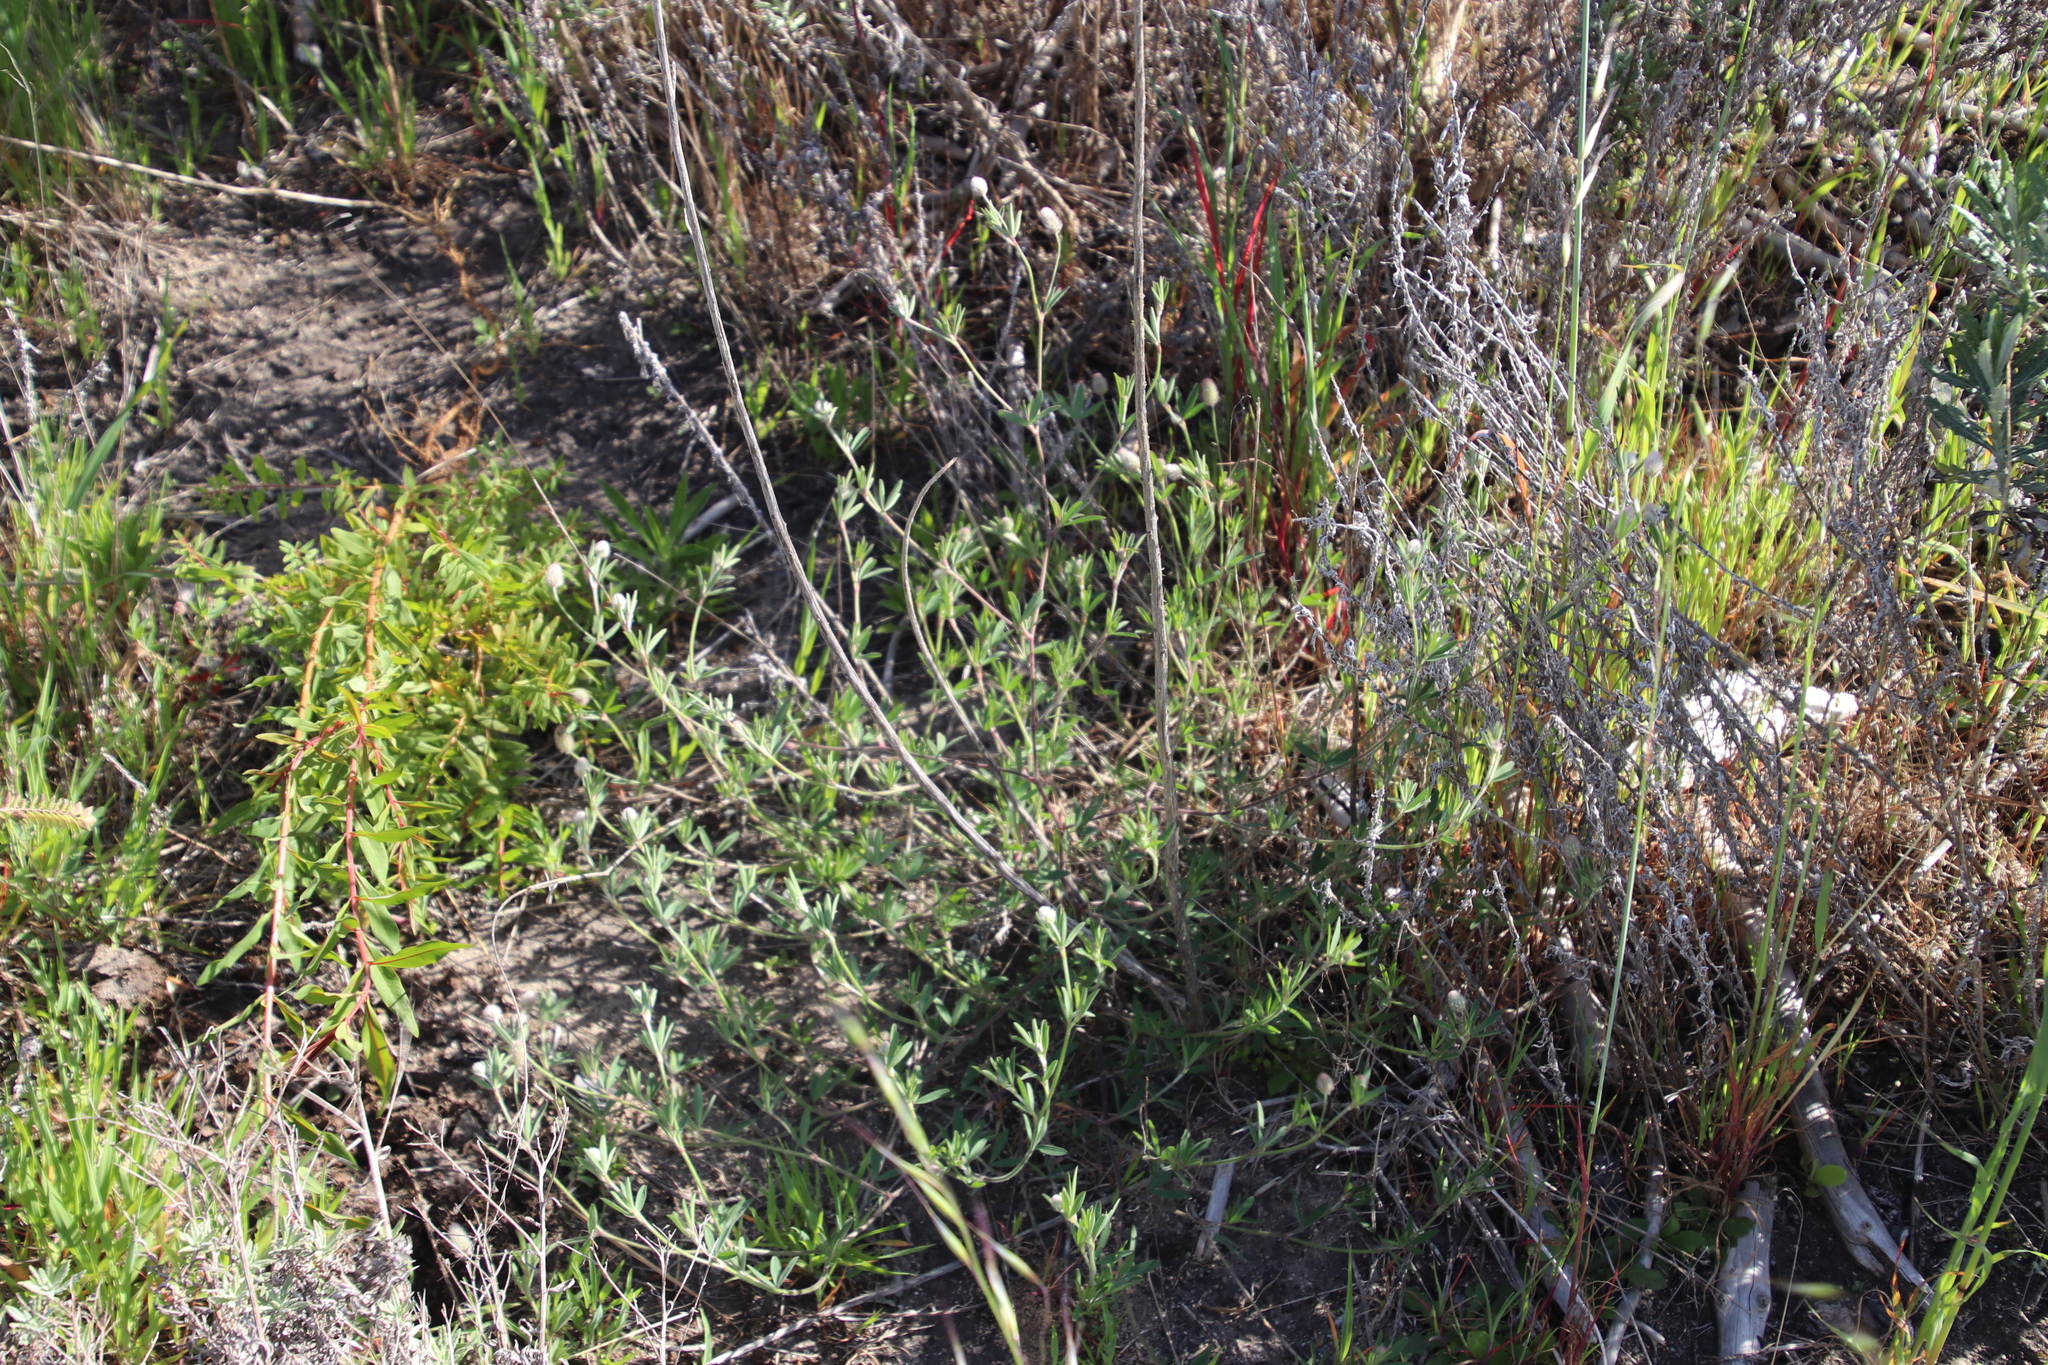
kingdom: Plantae
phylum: Tracheophyta
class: Magnoliopsida
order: Fabales
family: Fabaceae
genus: Trifolium
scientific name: Trifolium arvense
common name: Hare's-foot clover
